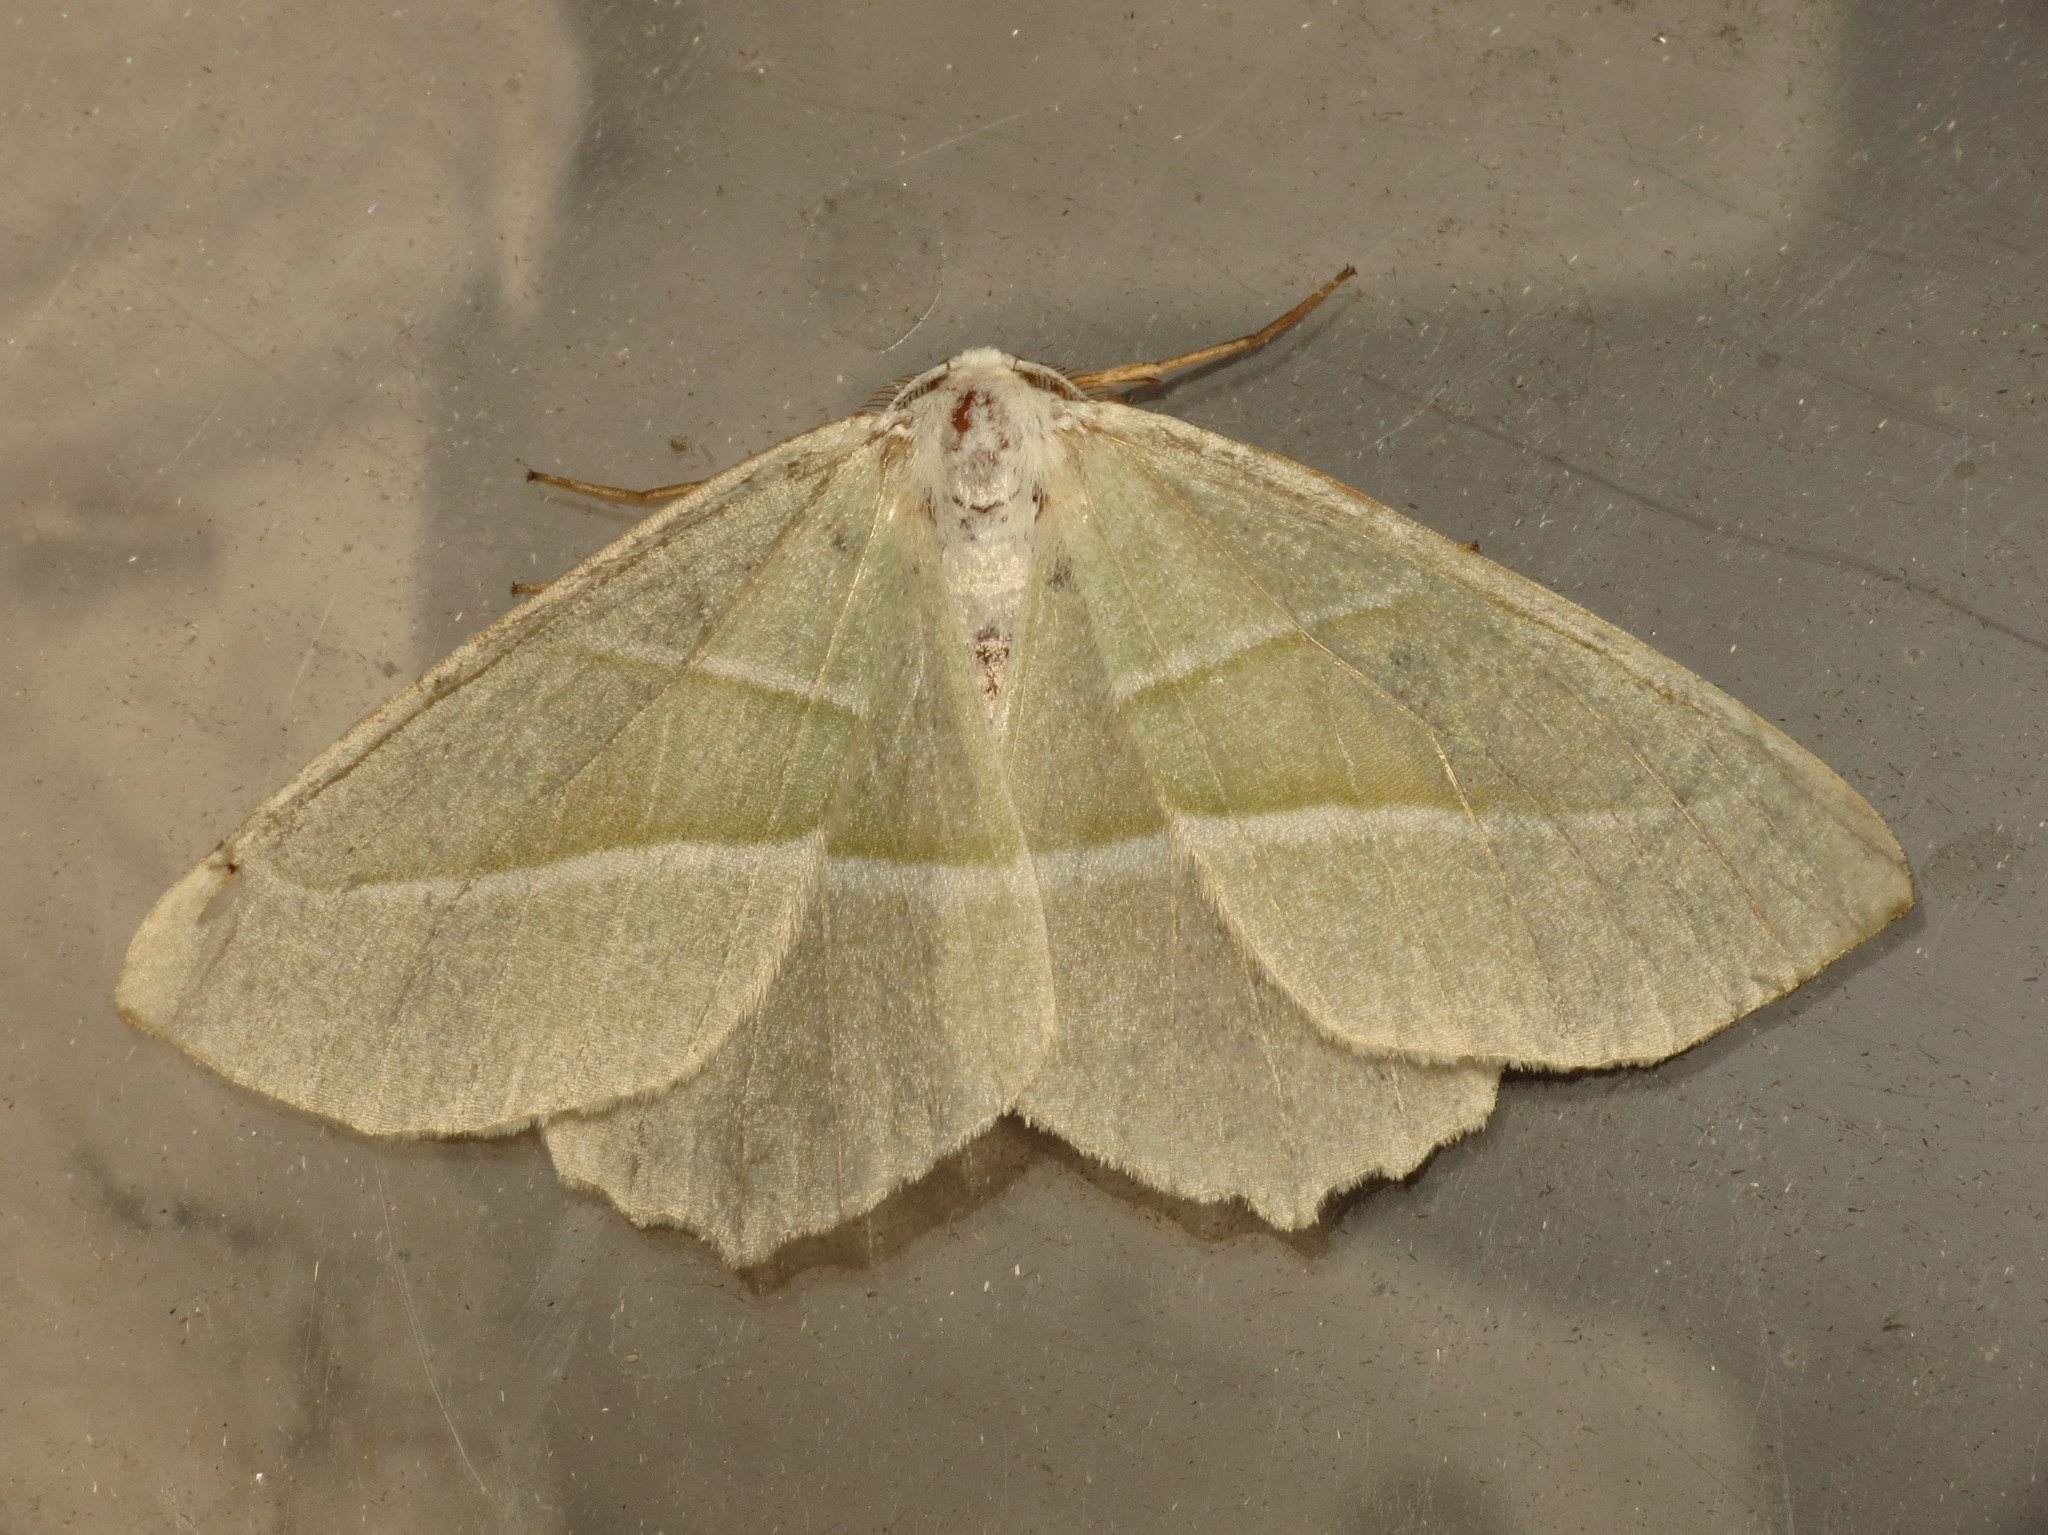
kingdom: Animalia
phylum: Arthropoda
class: Insecta
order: Lepidoptera
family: Geometridae
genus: Campaea
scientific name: Campaea margaritaria
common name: Light emerald
